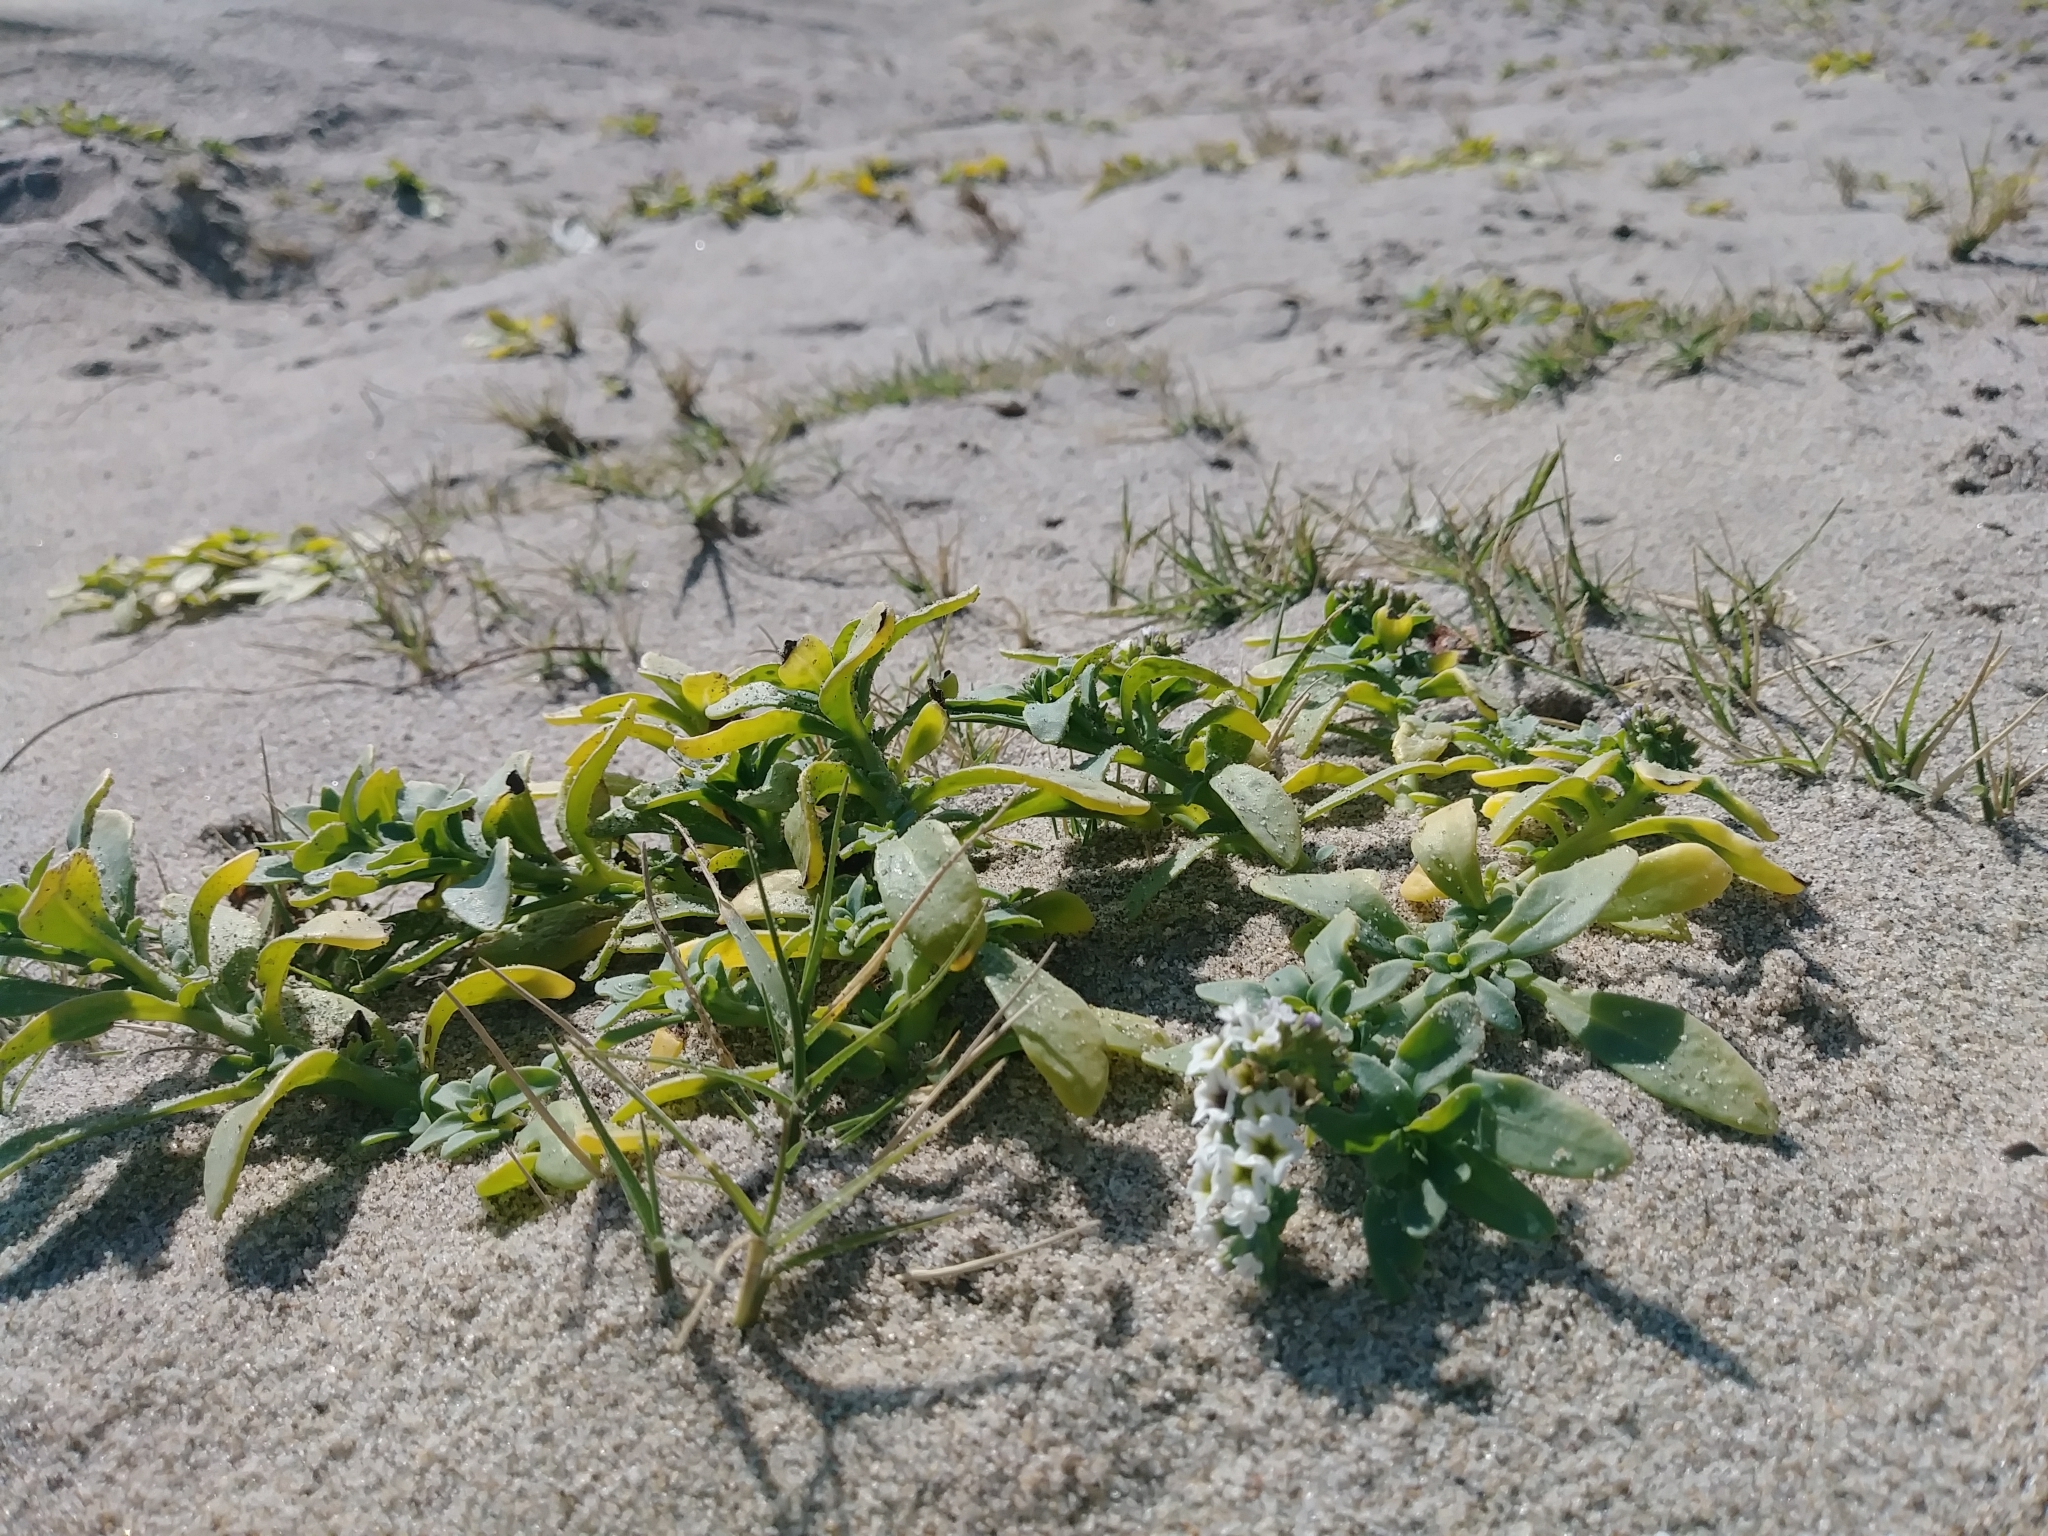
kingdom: Plantae
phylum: Tracheophyta
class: Magnoliopsida
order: Boraginales
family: Heliotropiaceae
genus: Heliotropium
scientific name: Heliotropium curassavicum
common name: Seaside heliotrope
